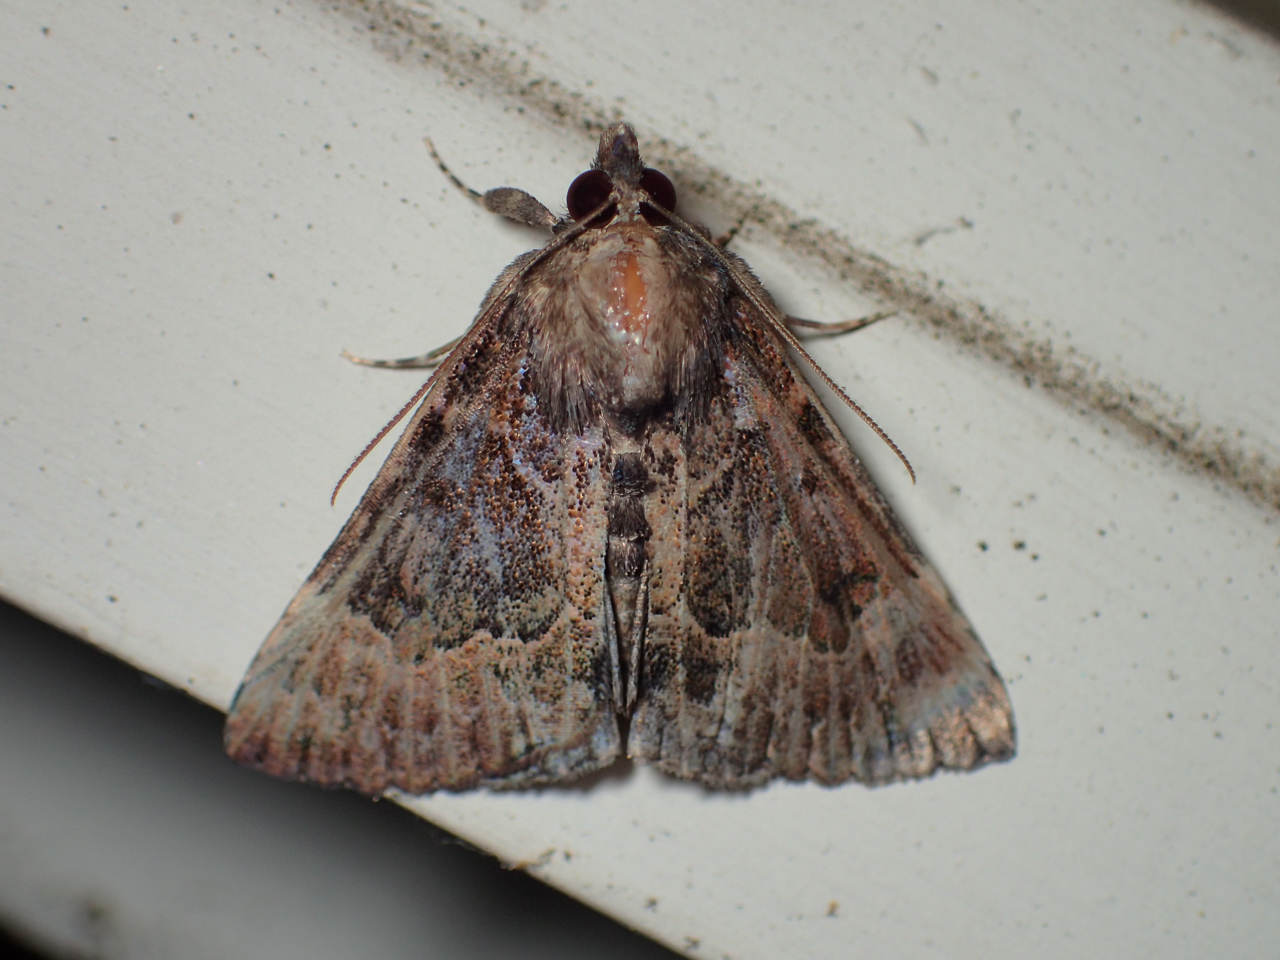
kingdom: Animalia
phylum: Arthropoda
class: Insecta
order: Lepidoptera
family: Erebidae
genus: Hypena
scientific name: Hypena palparia
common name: Mottled bomolocha moth
